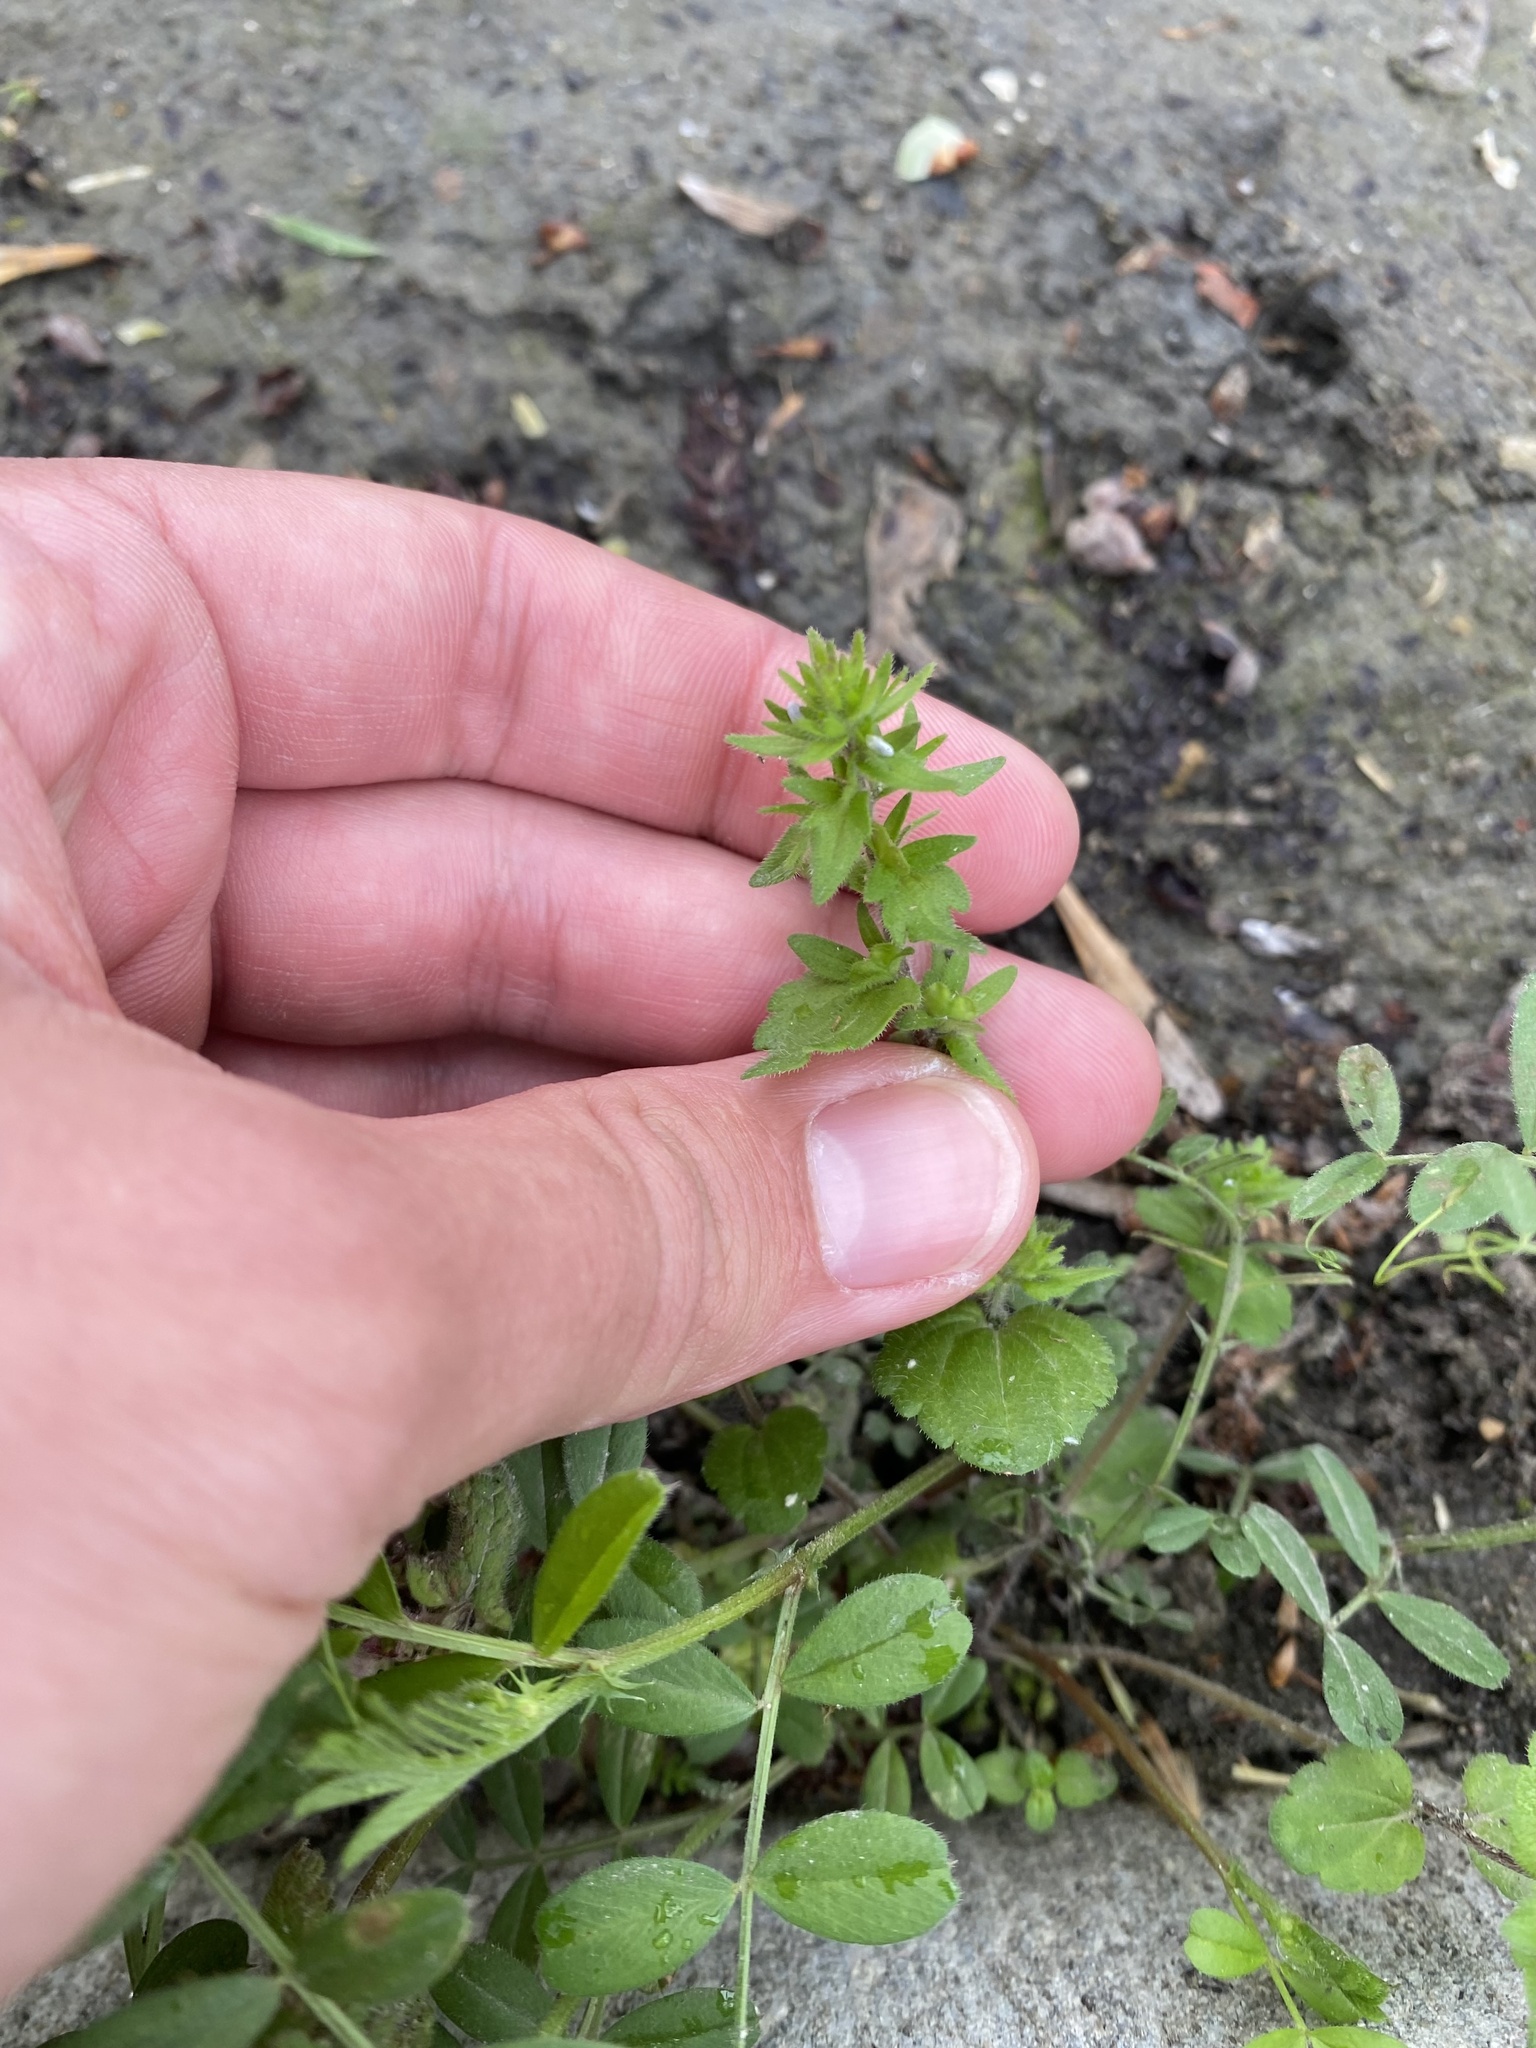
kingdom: Plantae
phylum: Tracheophyta
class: Magnoliopsida
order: Lamiales
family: Plantaginaceae
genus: Veronica
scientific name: Veronica arvensis
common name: Corn speedwell
